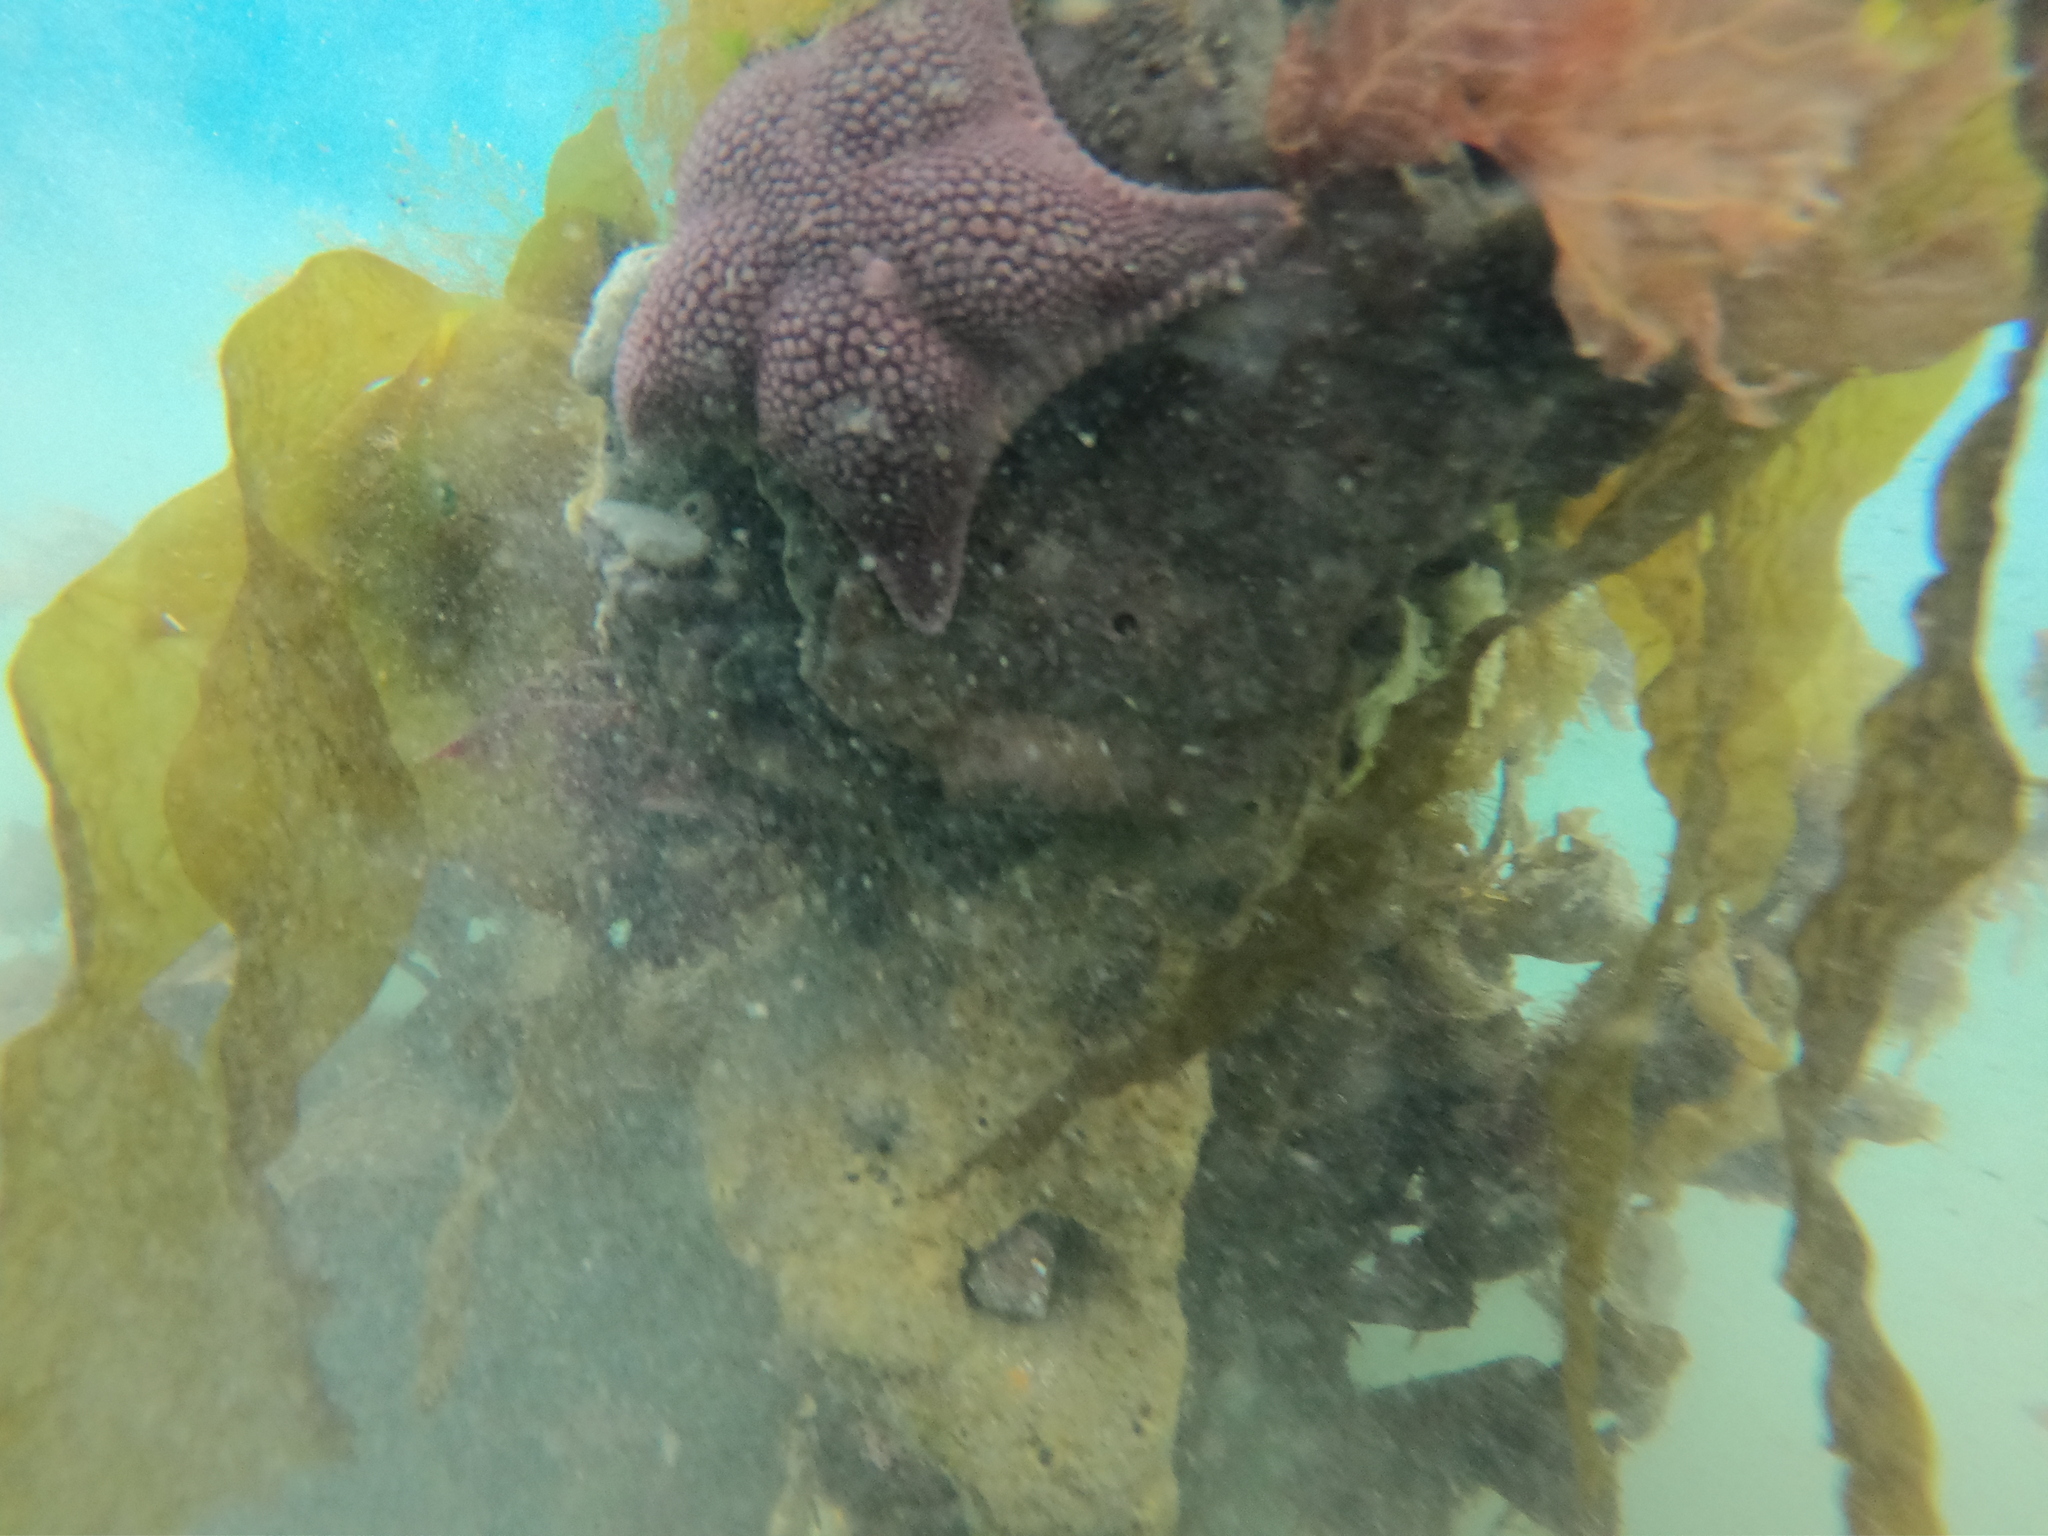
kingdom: Animalia
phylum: Echinodermata
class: Asteroidea
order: Valvatida
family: Odontasteridae
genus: Diplodontias
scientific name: Diplodontias singularis
